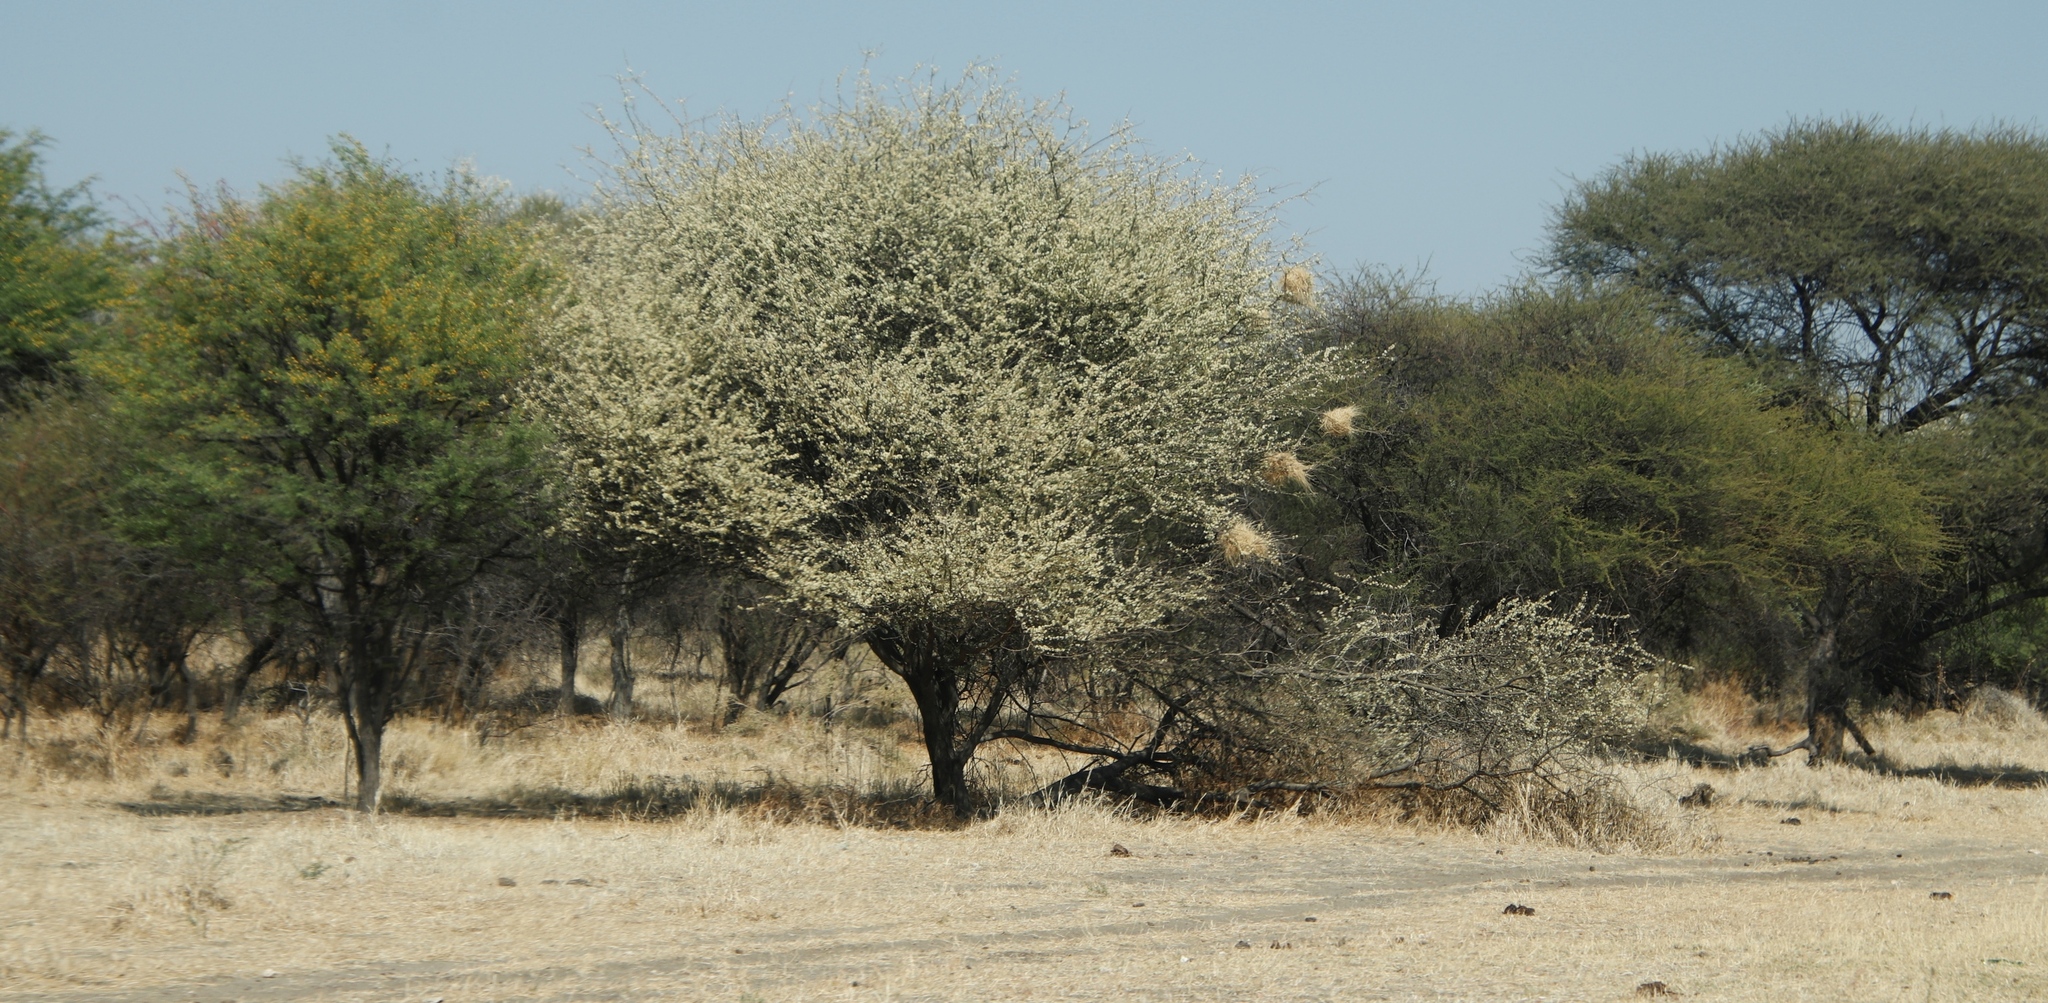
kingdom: Animalia
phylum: Chordata
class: Aves
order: Passeriformes
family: Passeridae
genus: Plocepasser
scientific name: Plocepasser mahali
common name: White-browed sparrow-weaver
